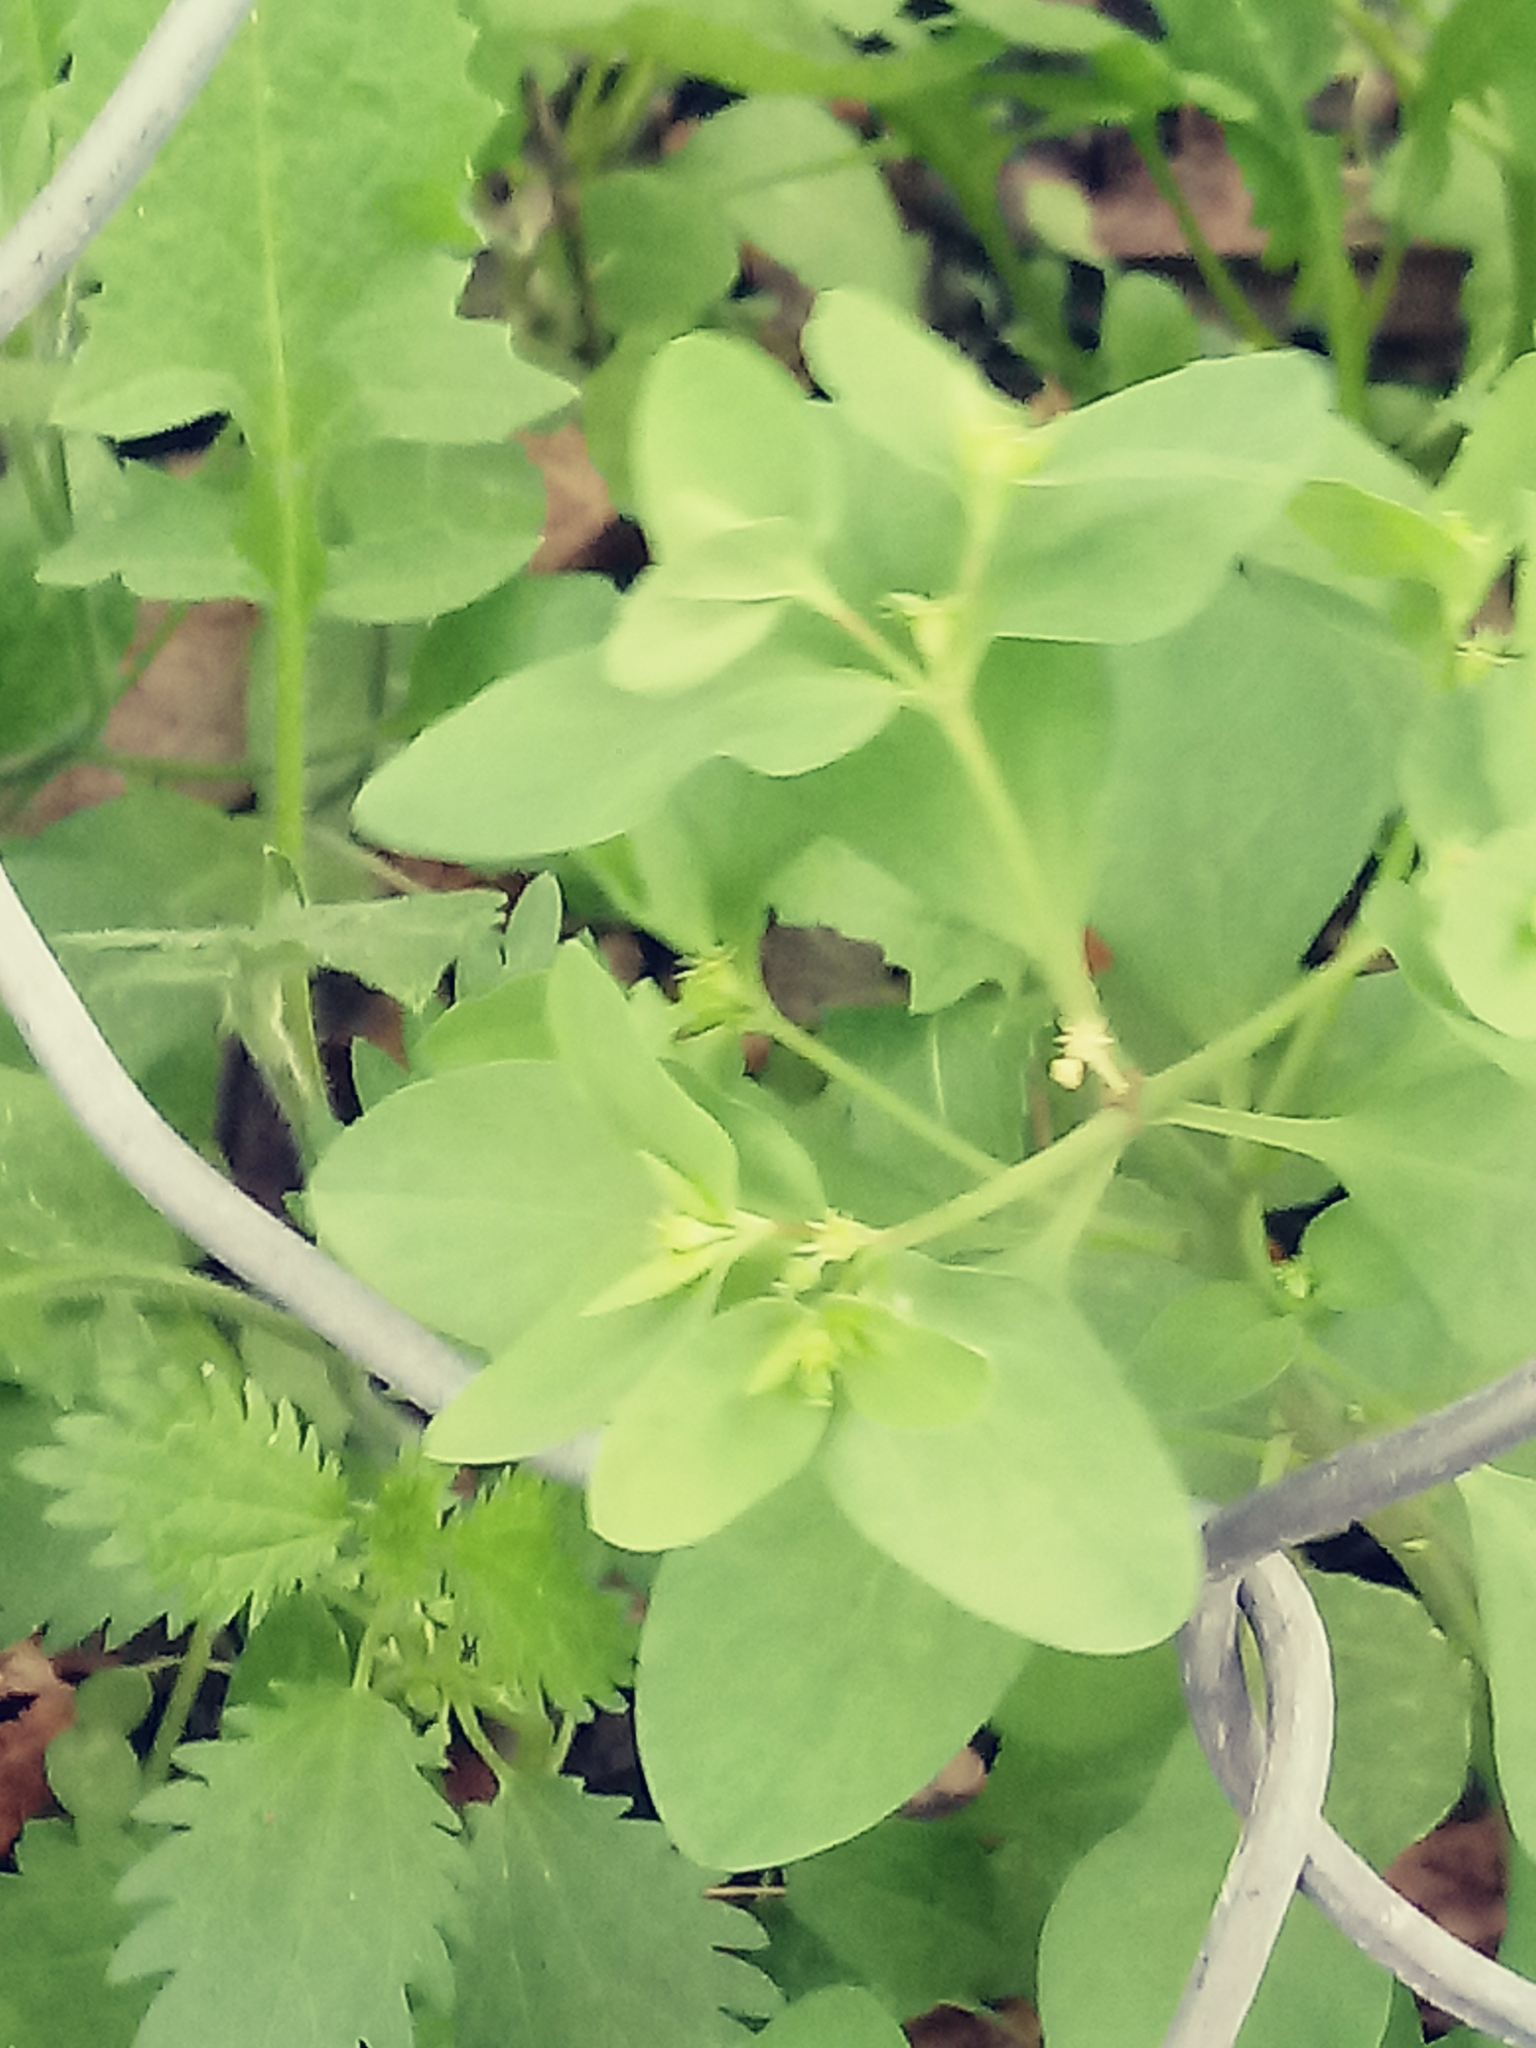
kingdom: Plantae
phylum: Tracheophyta
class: Magnoliopsida
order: Malpighiales
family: Euphorbiaceae
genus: Euphorbia
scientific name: Euphorbia peplus
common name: Petty spurge
